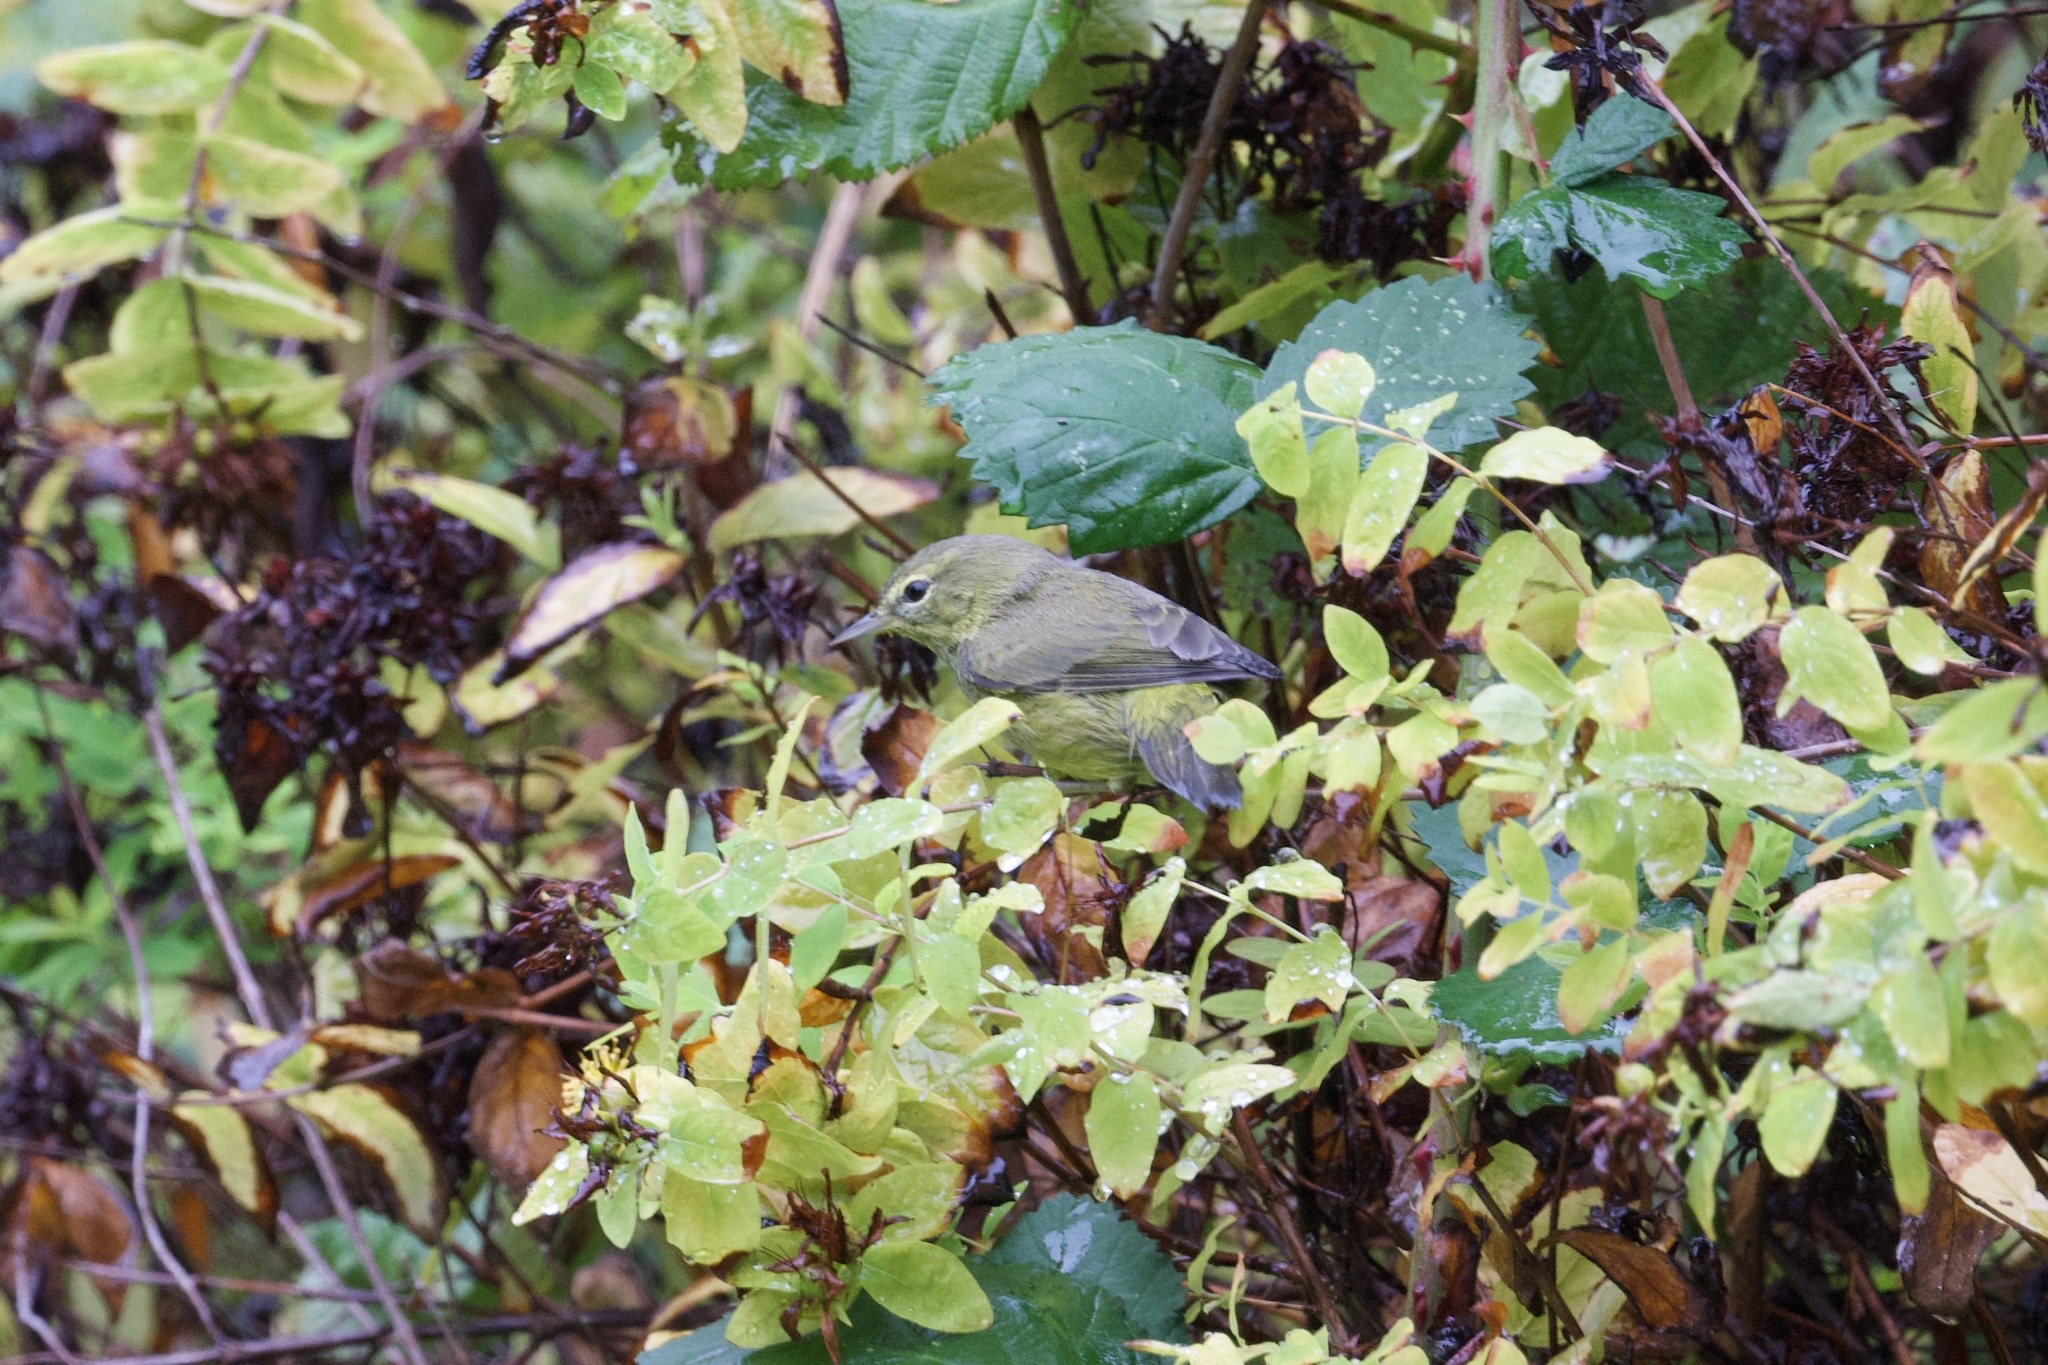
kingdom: Animalia
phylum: Chordata
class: Aves
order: Passeriformes
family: Parulidae
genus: Leiothlypis
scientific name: Leiothlypis celata
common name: Orange-crowned warbler
